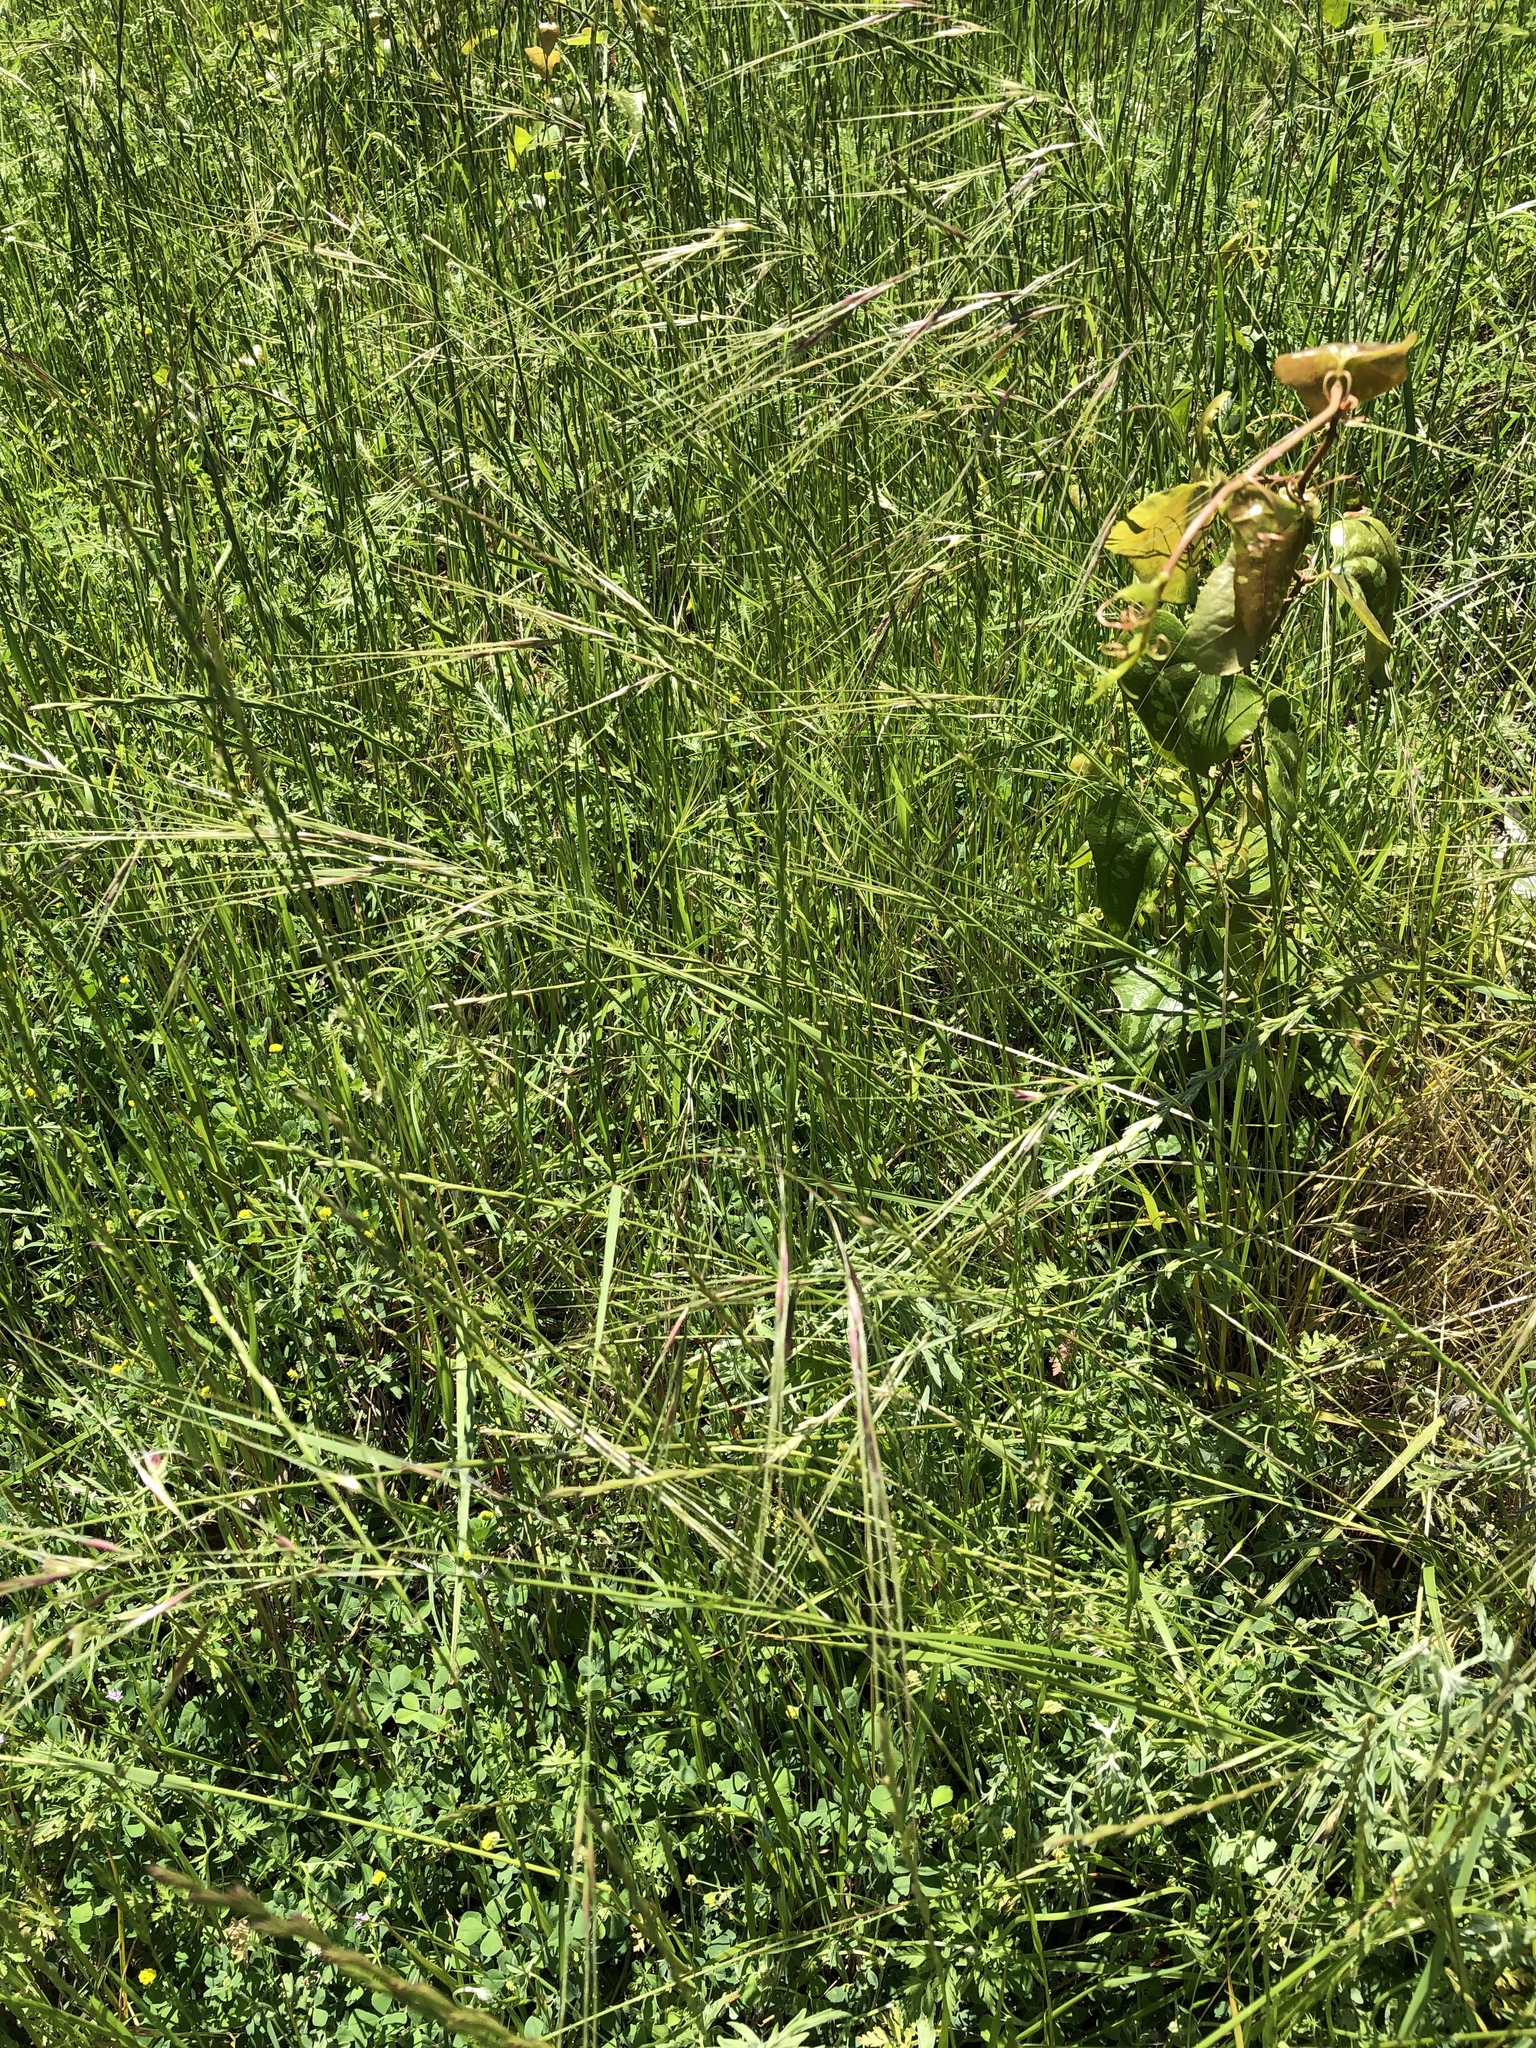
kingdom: Plantae
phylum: Tracheophyta
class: Liliopsida
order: Poales
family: Poaceae
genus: Nassella
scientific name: Nassella leucotricha
